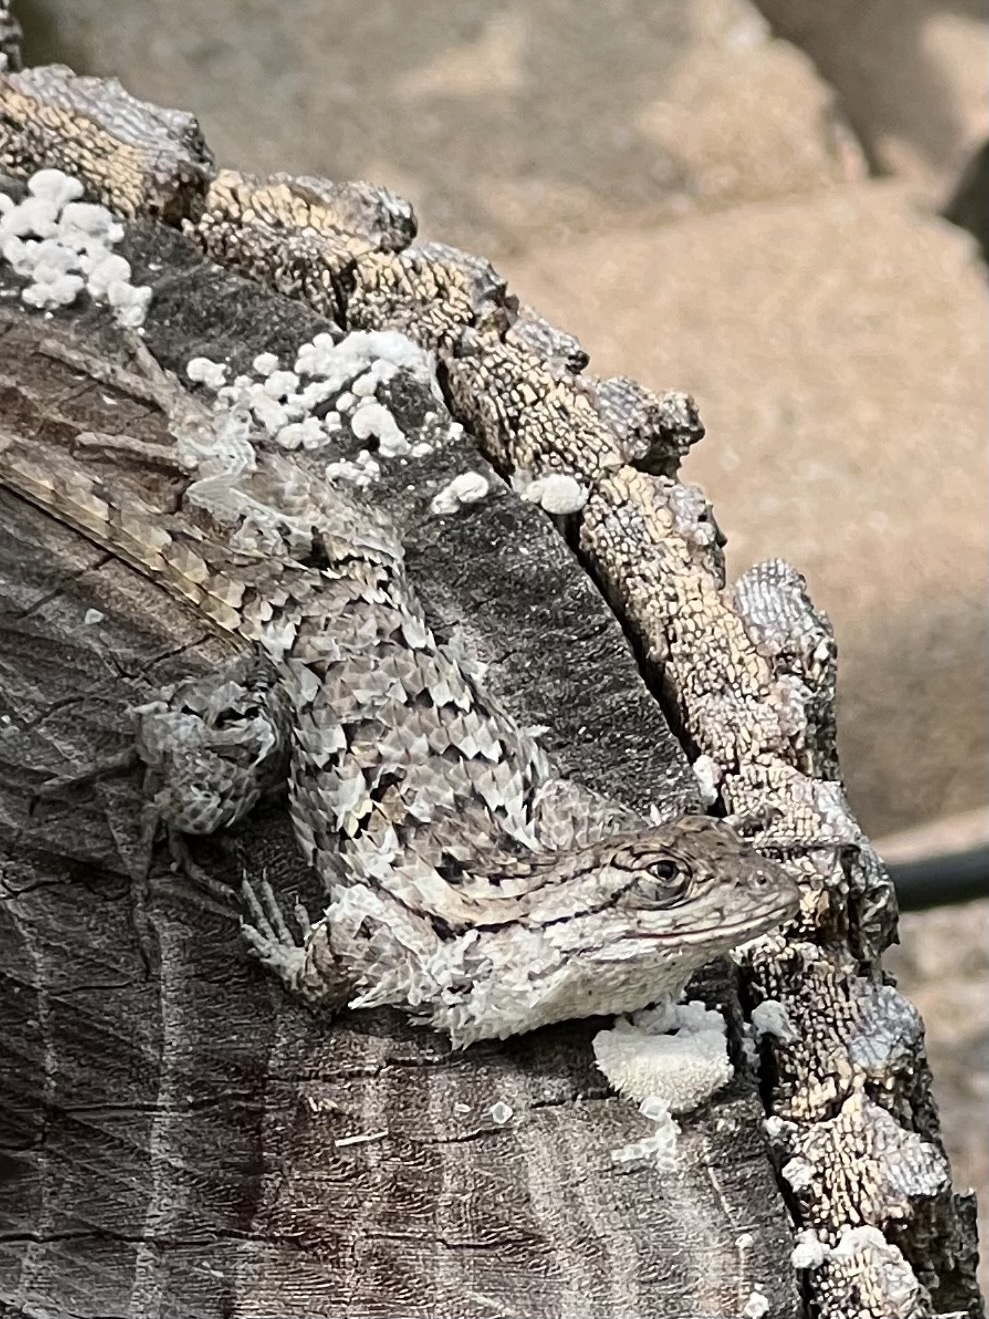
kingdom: Animalia
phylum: Chordata
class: Squamata
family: Phrynosomatidae
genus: Sceloporus
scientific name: Sceloporus olivaceus
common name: Texas spiny lizard
